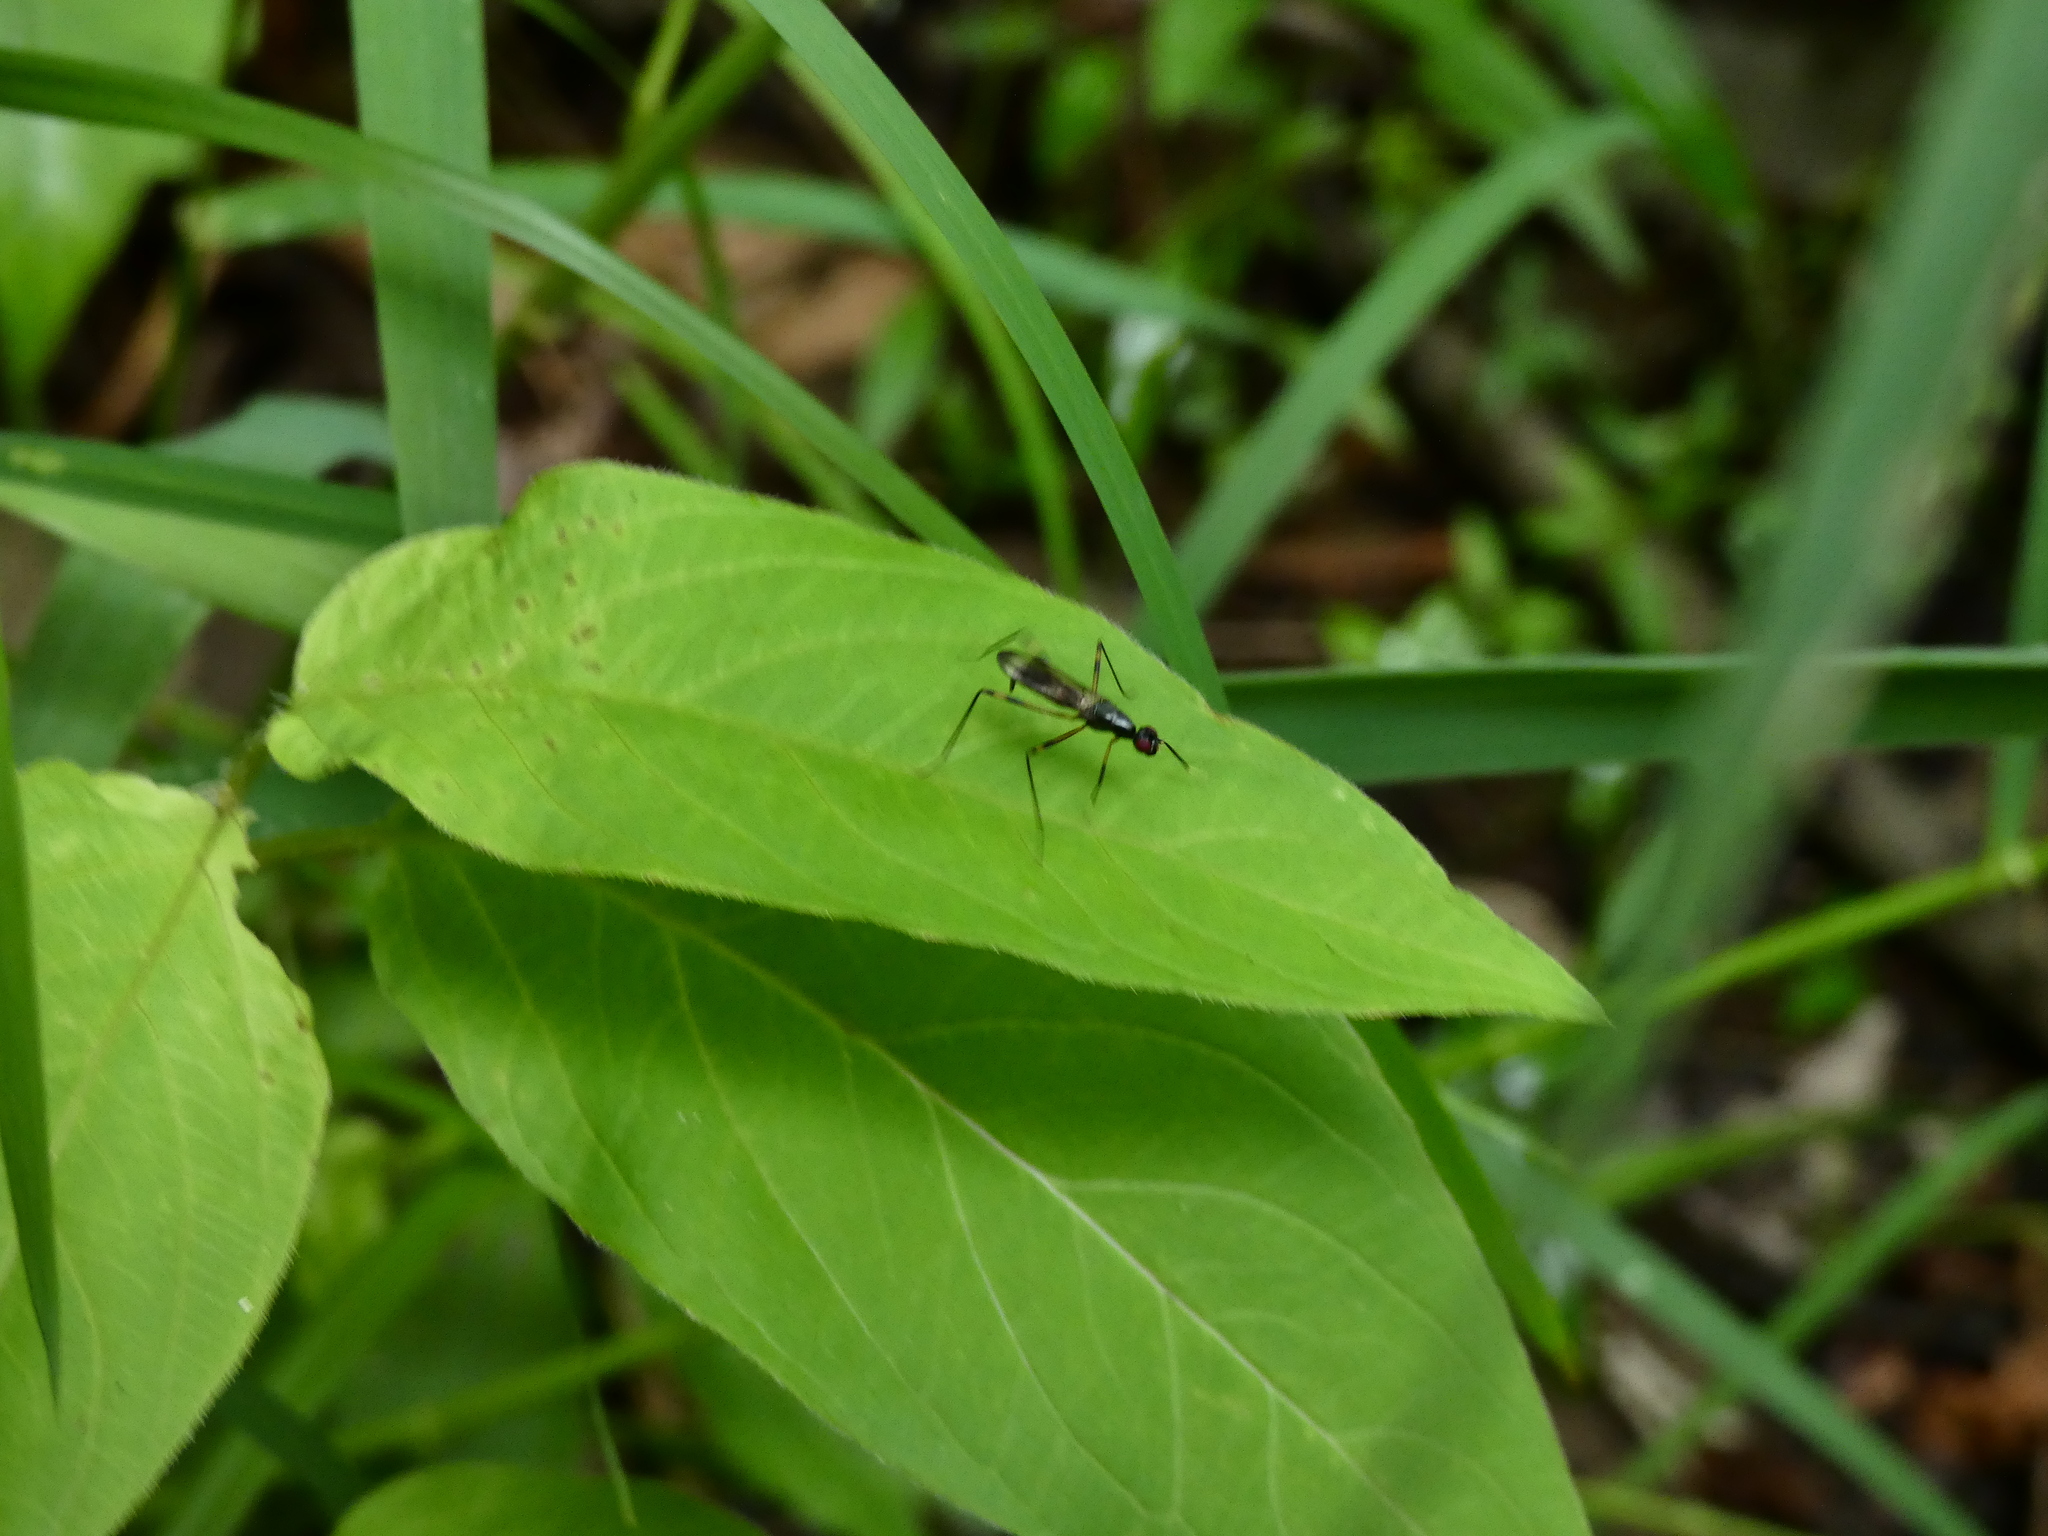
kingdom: Animalia
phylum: Arthropoda
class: Insecta
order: Diptera
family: Micropezidae
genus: Rainieria
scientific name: Rainieria antennaepes
